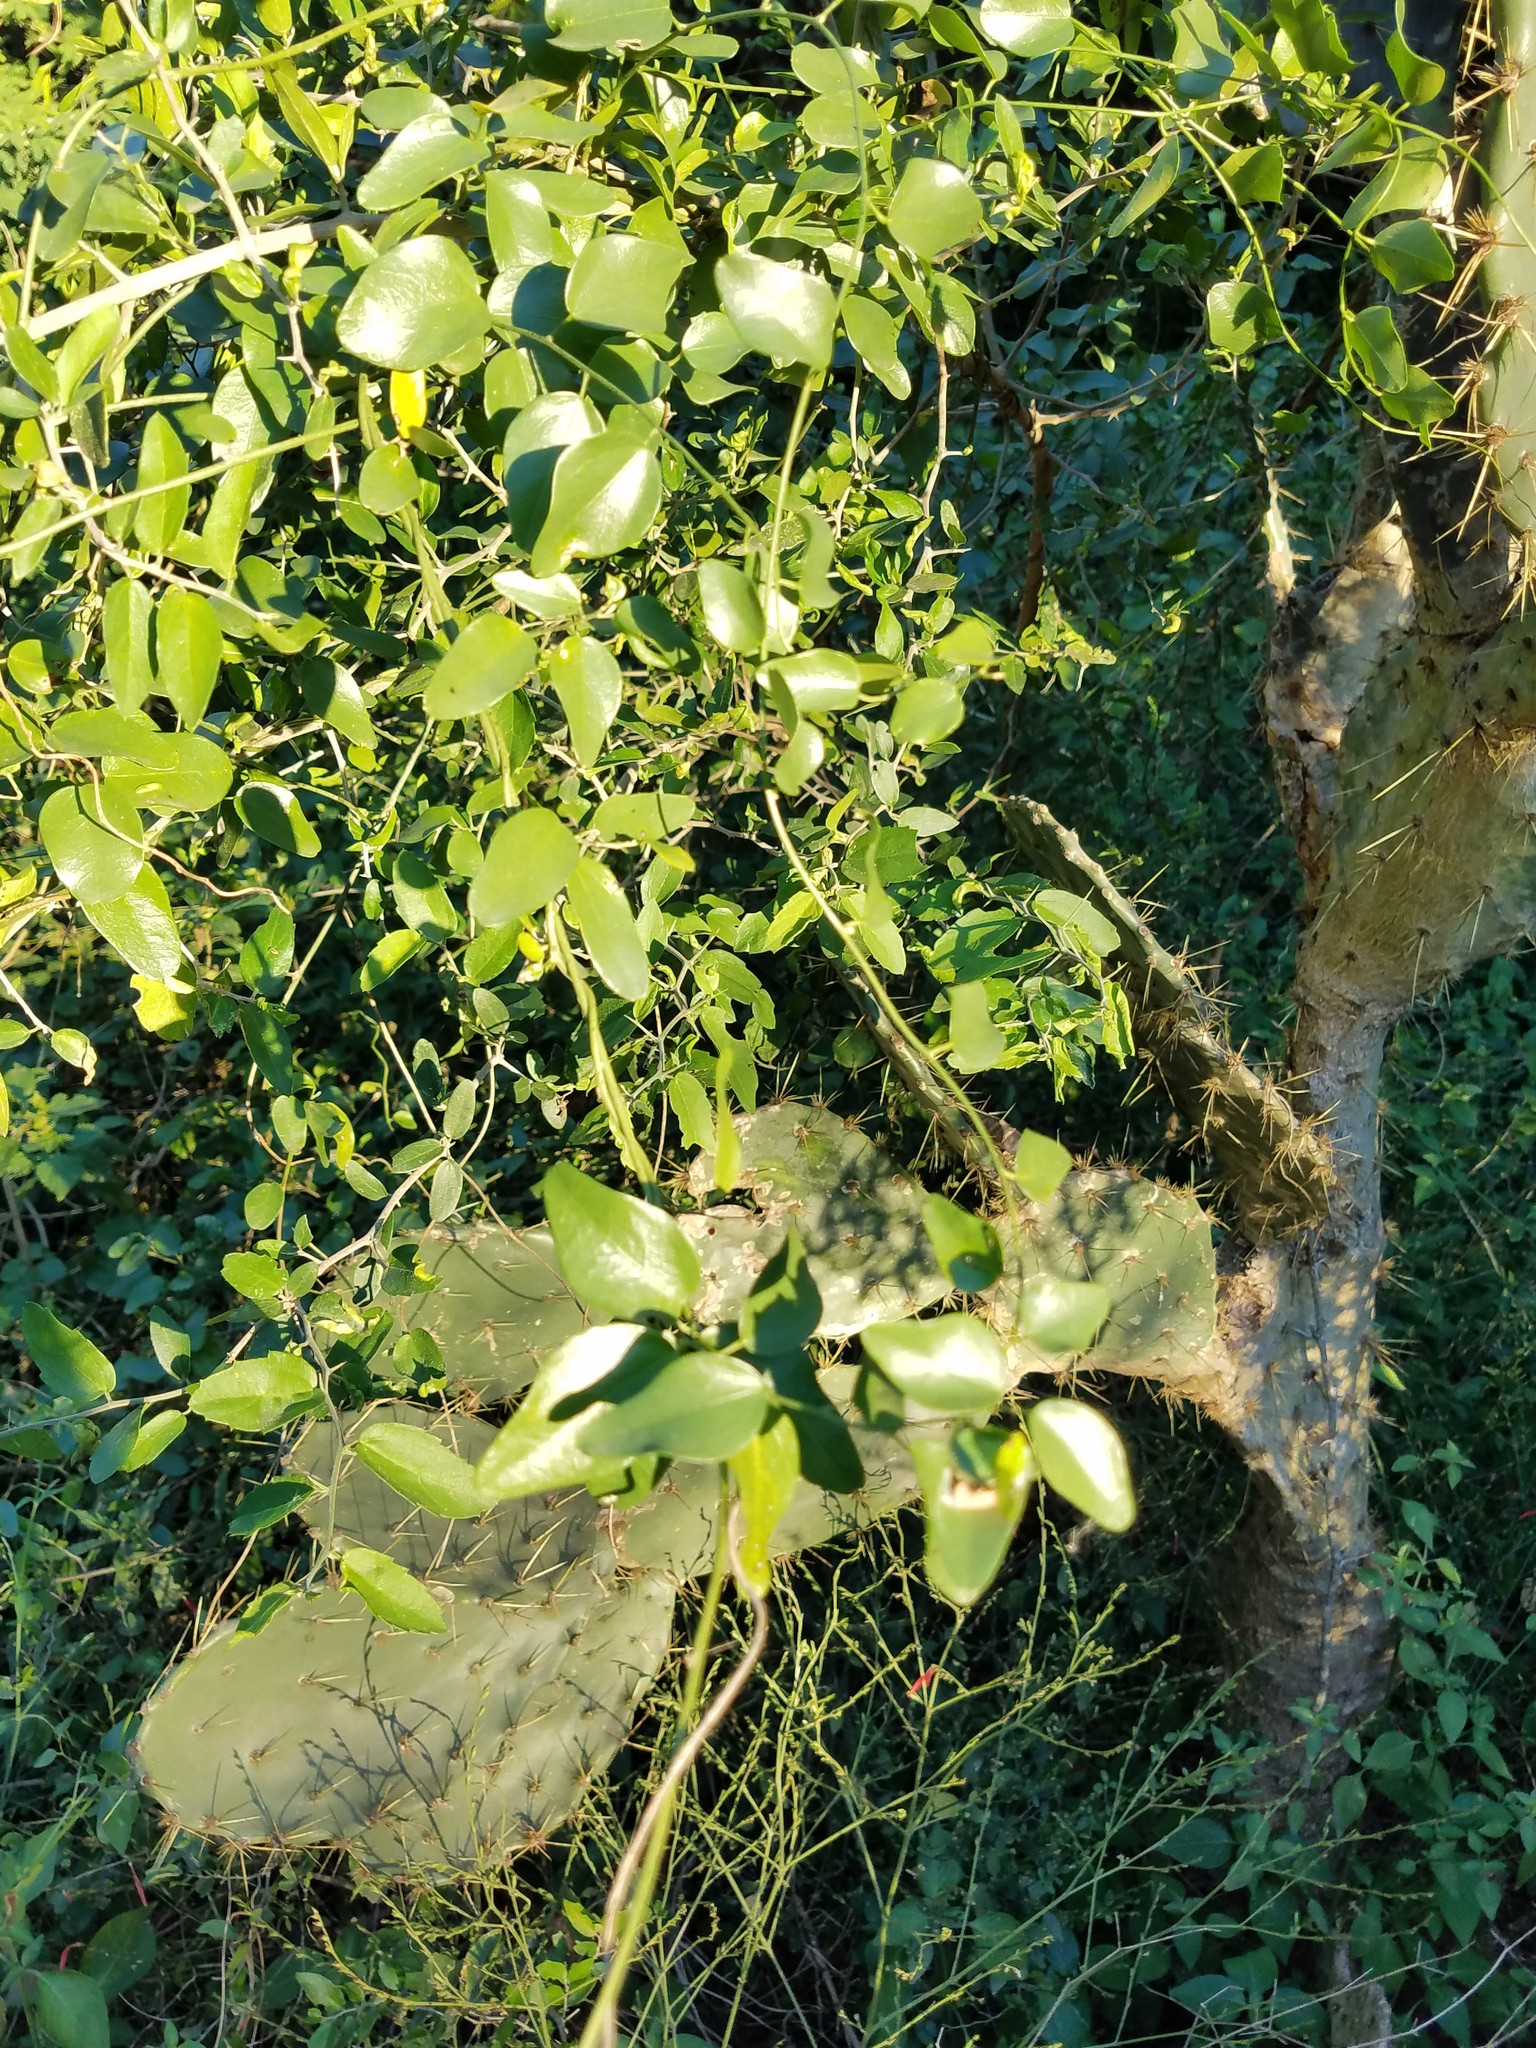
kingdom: Plantae
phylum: Tracheophyta
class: Magnoliopsida
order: Ranunculales
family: Menispermaceae
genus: Cocculus
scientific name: Cocculus diversifolius
